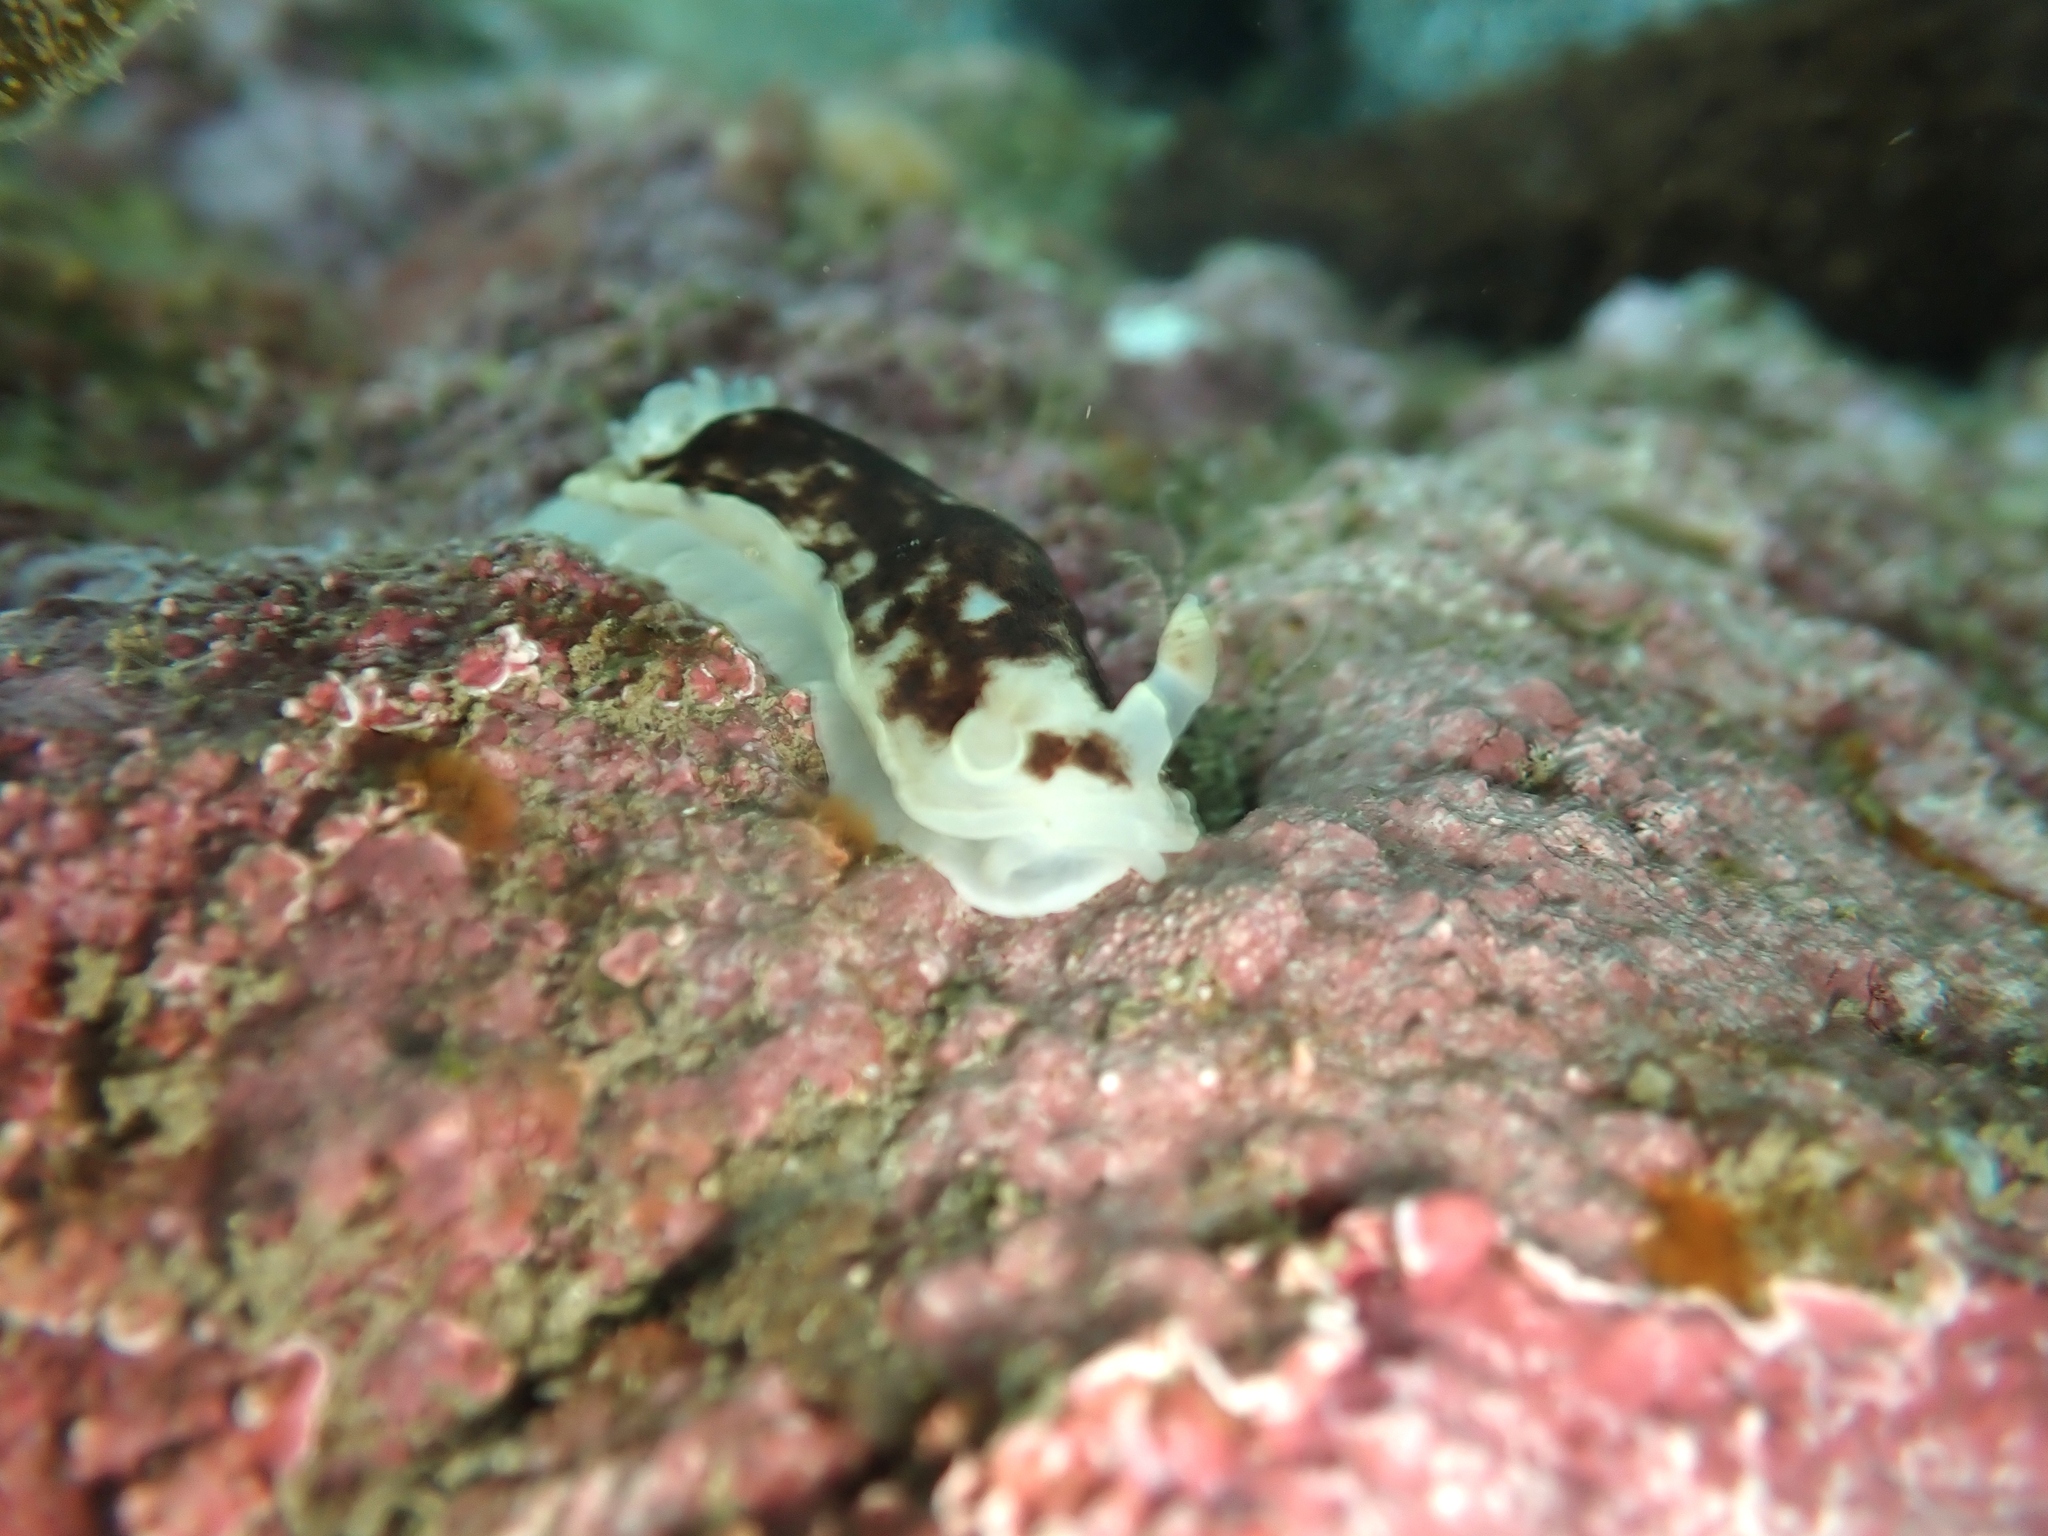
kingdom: Animalia
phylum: Mollusca
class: Gastropoda
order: Nudibranchia
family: Dorididae
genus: Aphelodoris
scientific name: Aphelodoris luctuosa
